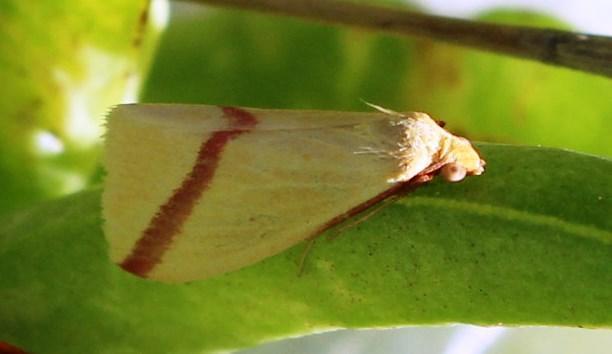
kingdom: Animalia
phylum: Arthropoda
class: Insecta
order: Lepidoptera
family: Geometridae
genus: Rhodometra
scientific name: Rhodometra sacraria
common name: Vestal
